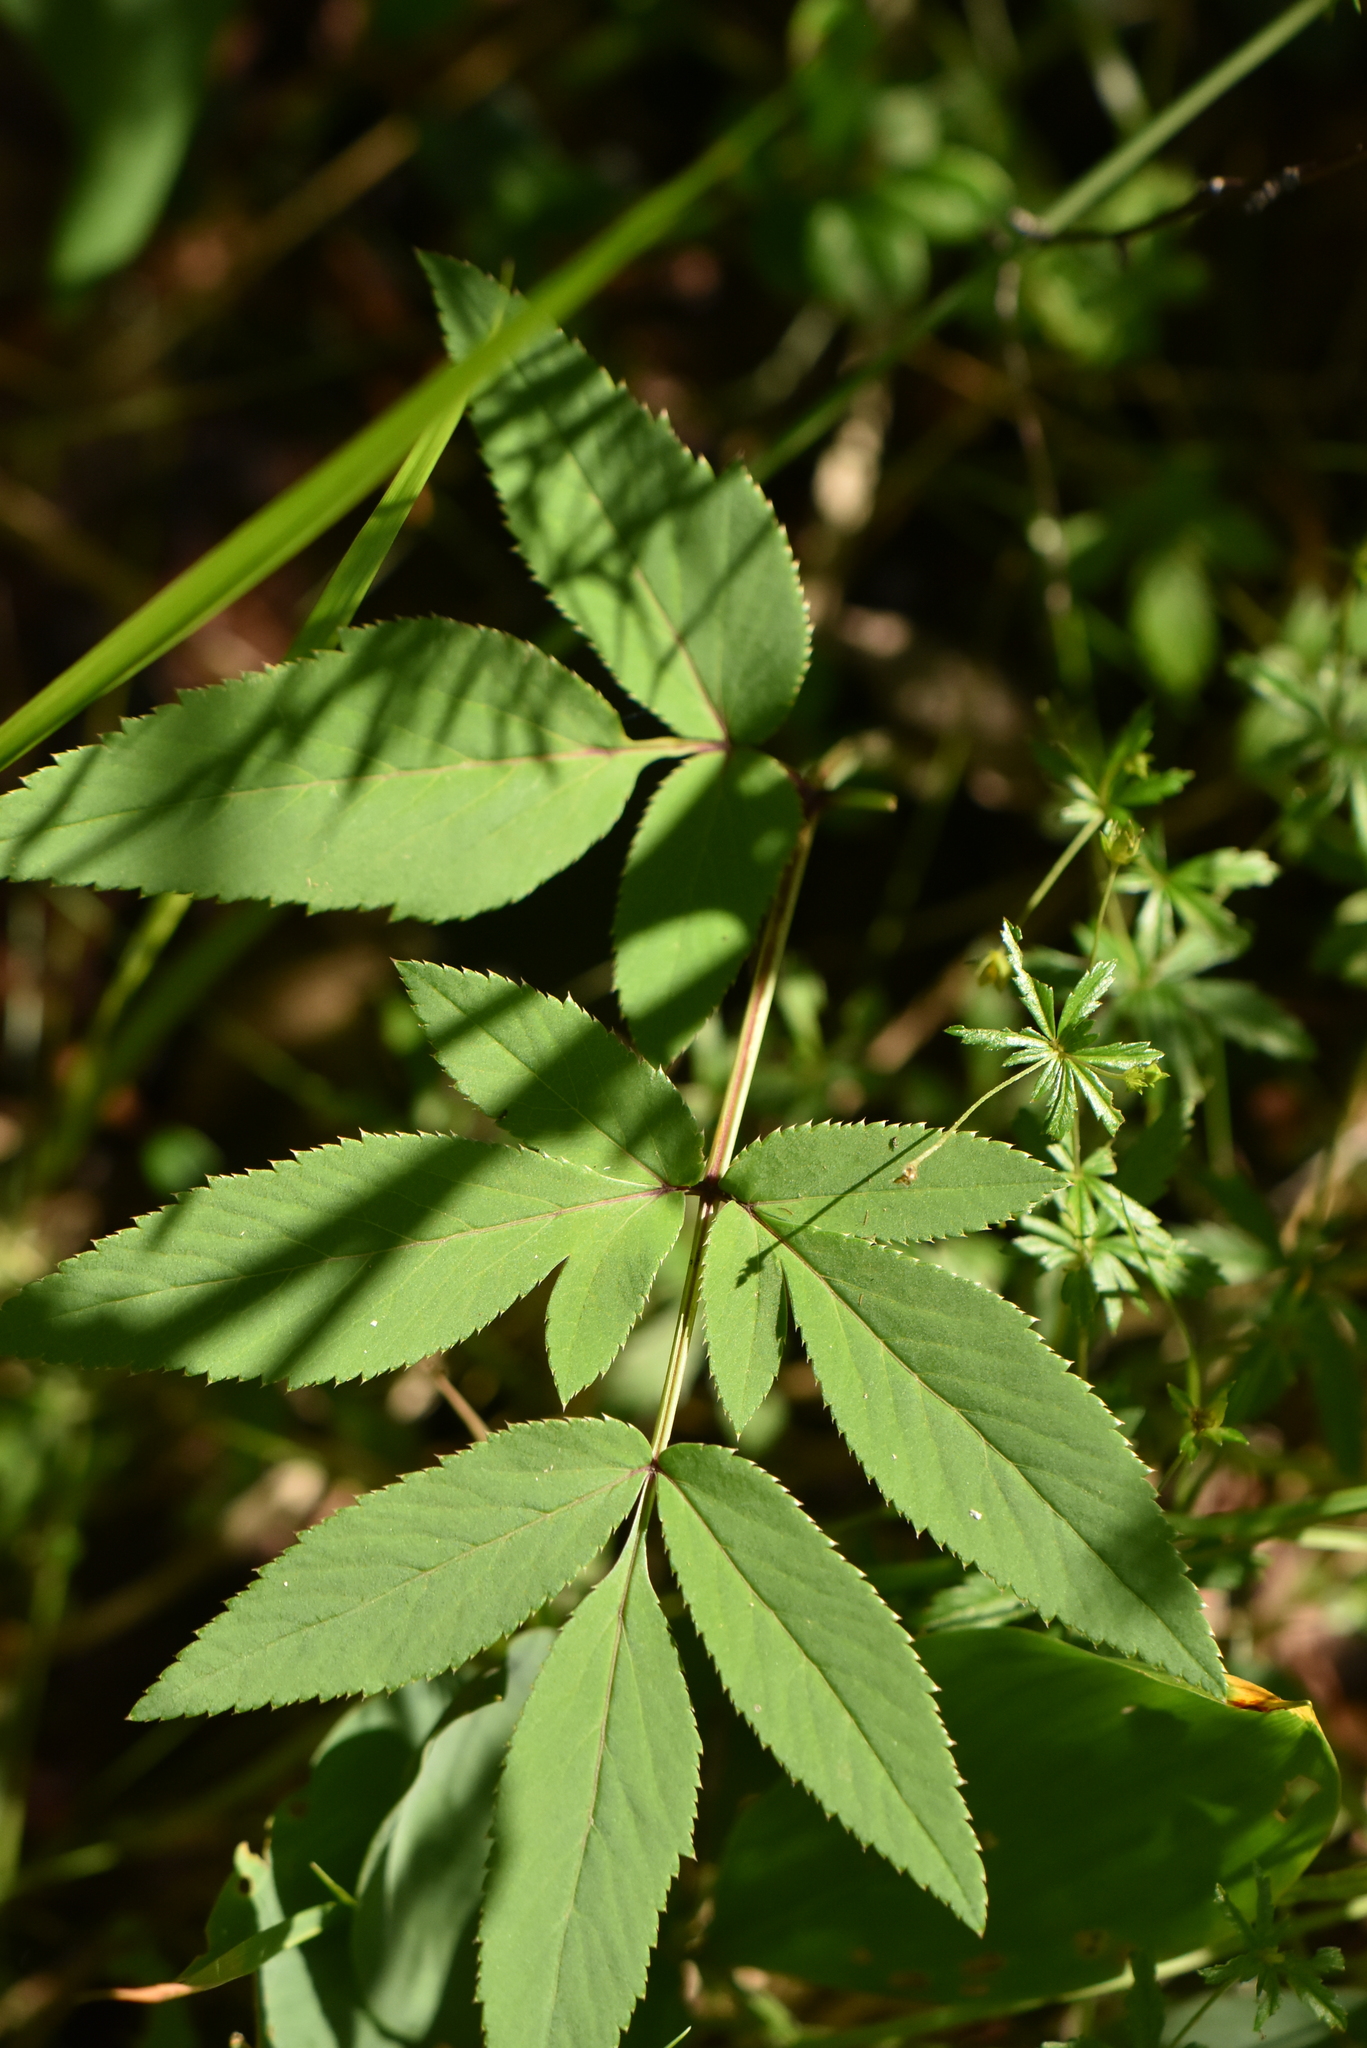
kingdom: Plantae
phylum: Tracheophyta
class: Magnoliopsida
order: Apiales
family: Apiaceae
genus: Angelica
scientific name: Angelica sylvestris
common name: Wild angelica
